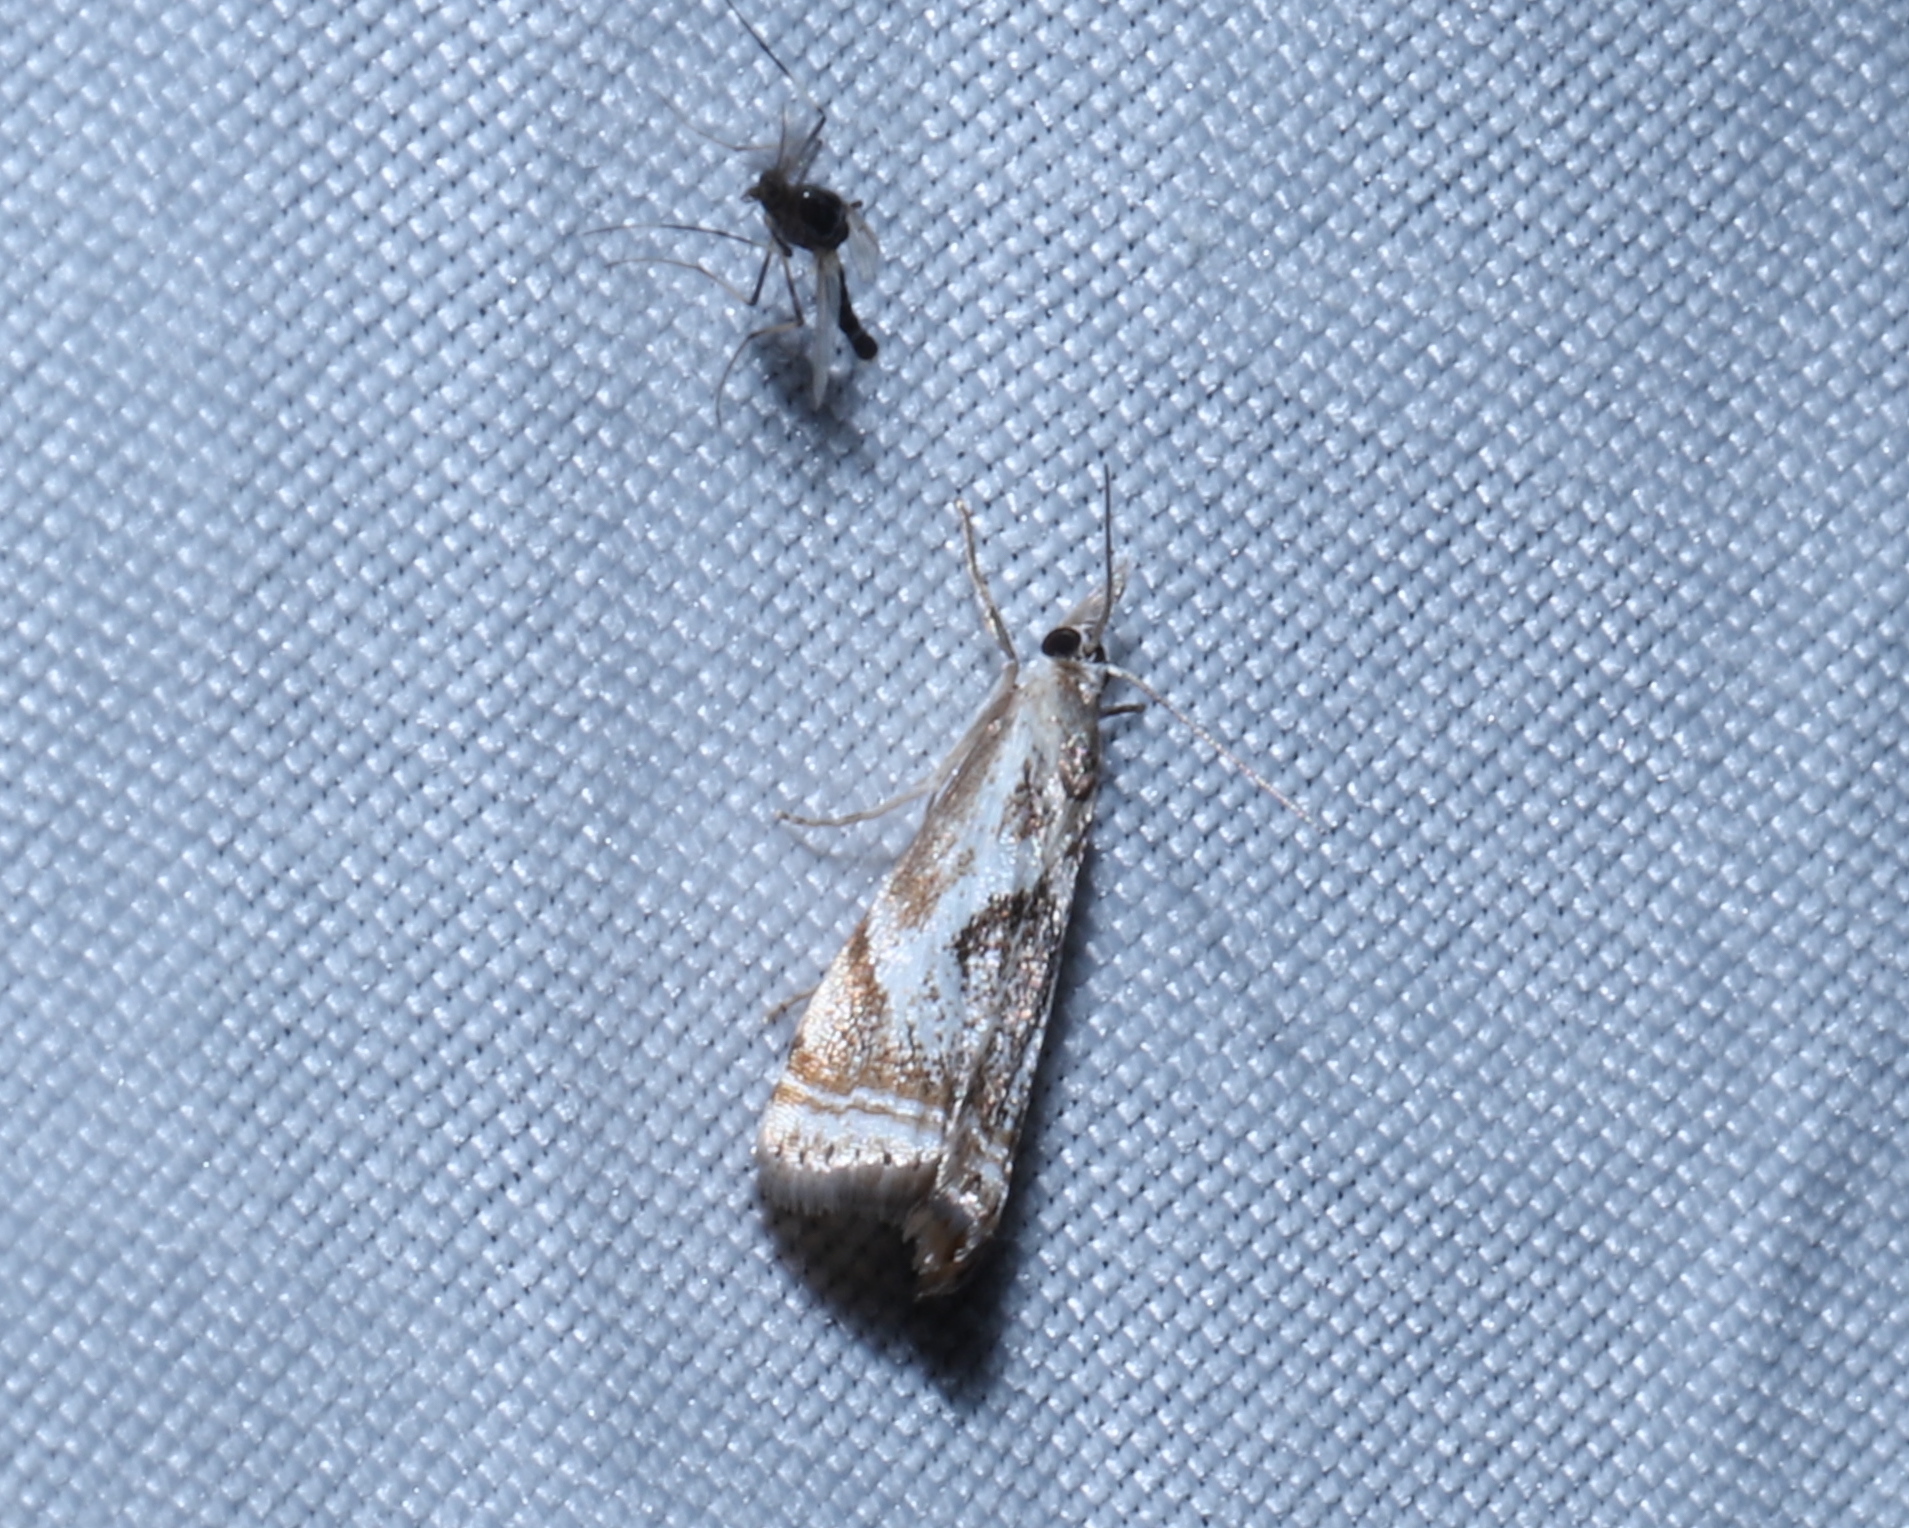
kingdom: Animalia
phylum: Arthropoda
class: Insecta
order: Lepidoptera
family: Crambidae
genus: Microcrambus
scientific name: Microcrambus elegans
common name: Elegant grass-veneer
